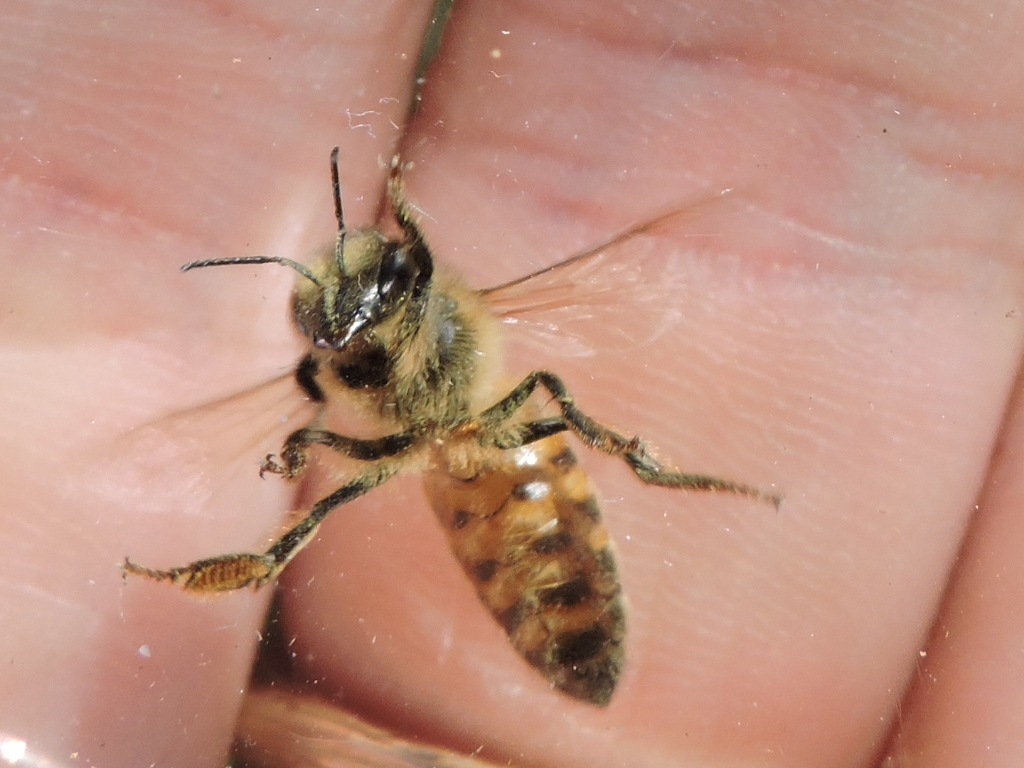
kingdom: Animalia
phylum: Arthropoda
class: Insecta
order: Hymenoptera
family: Apidae
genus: Apis
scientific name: Apis mellifera
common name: Honey bee
